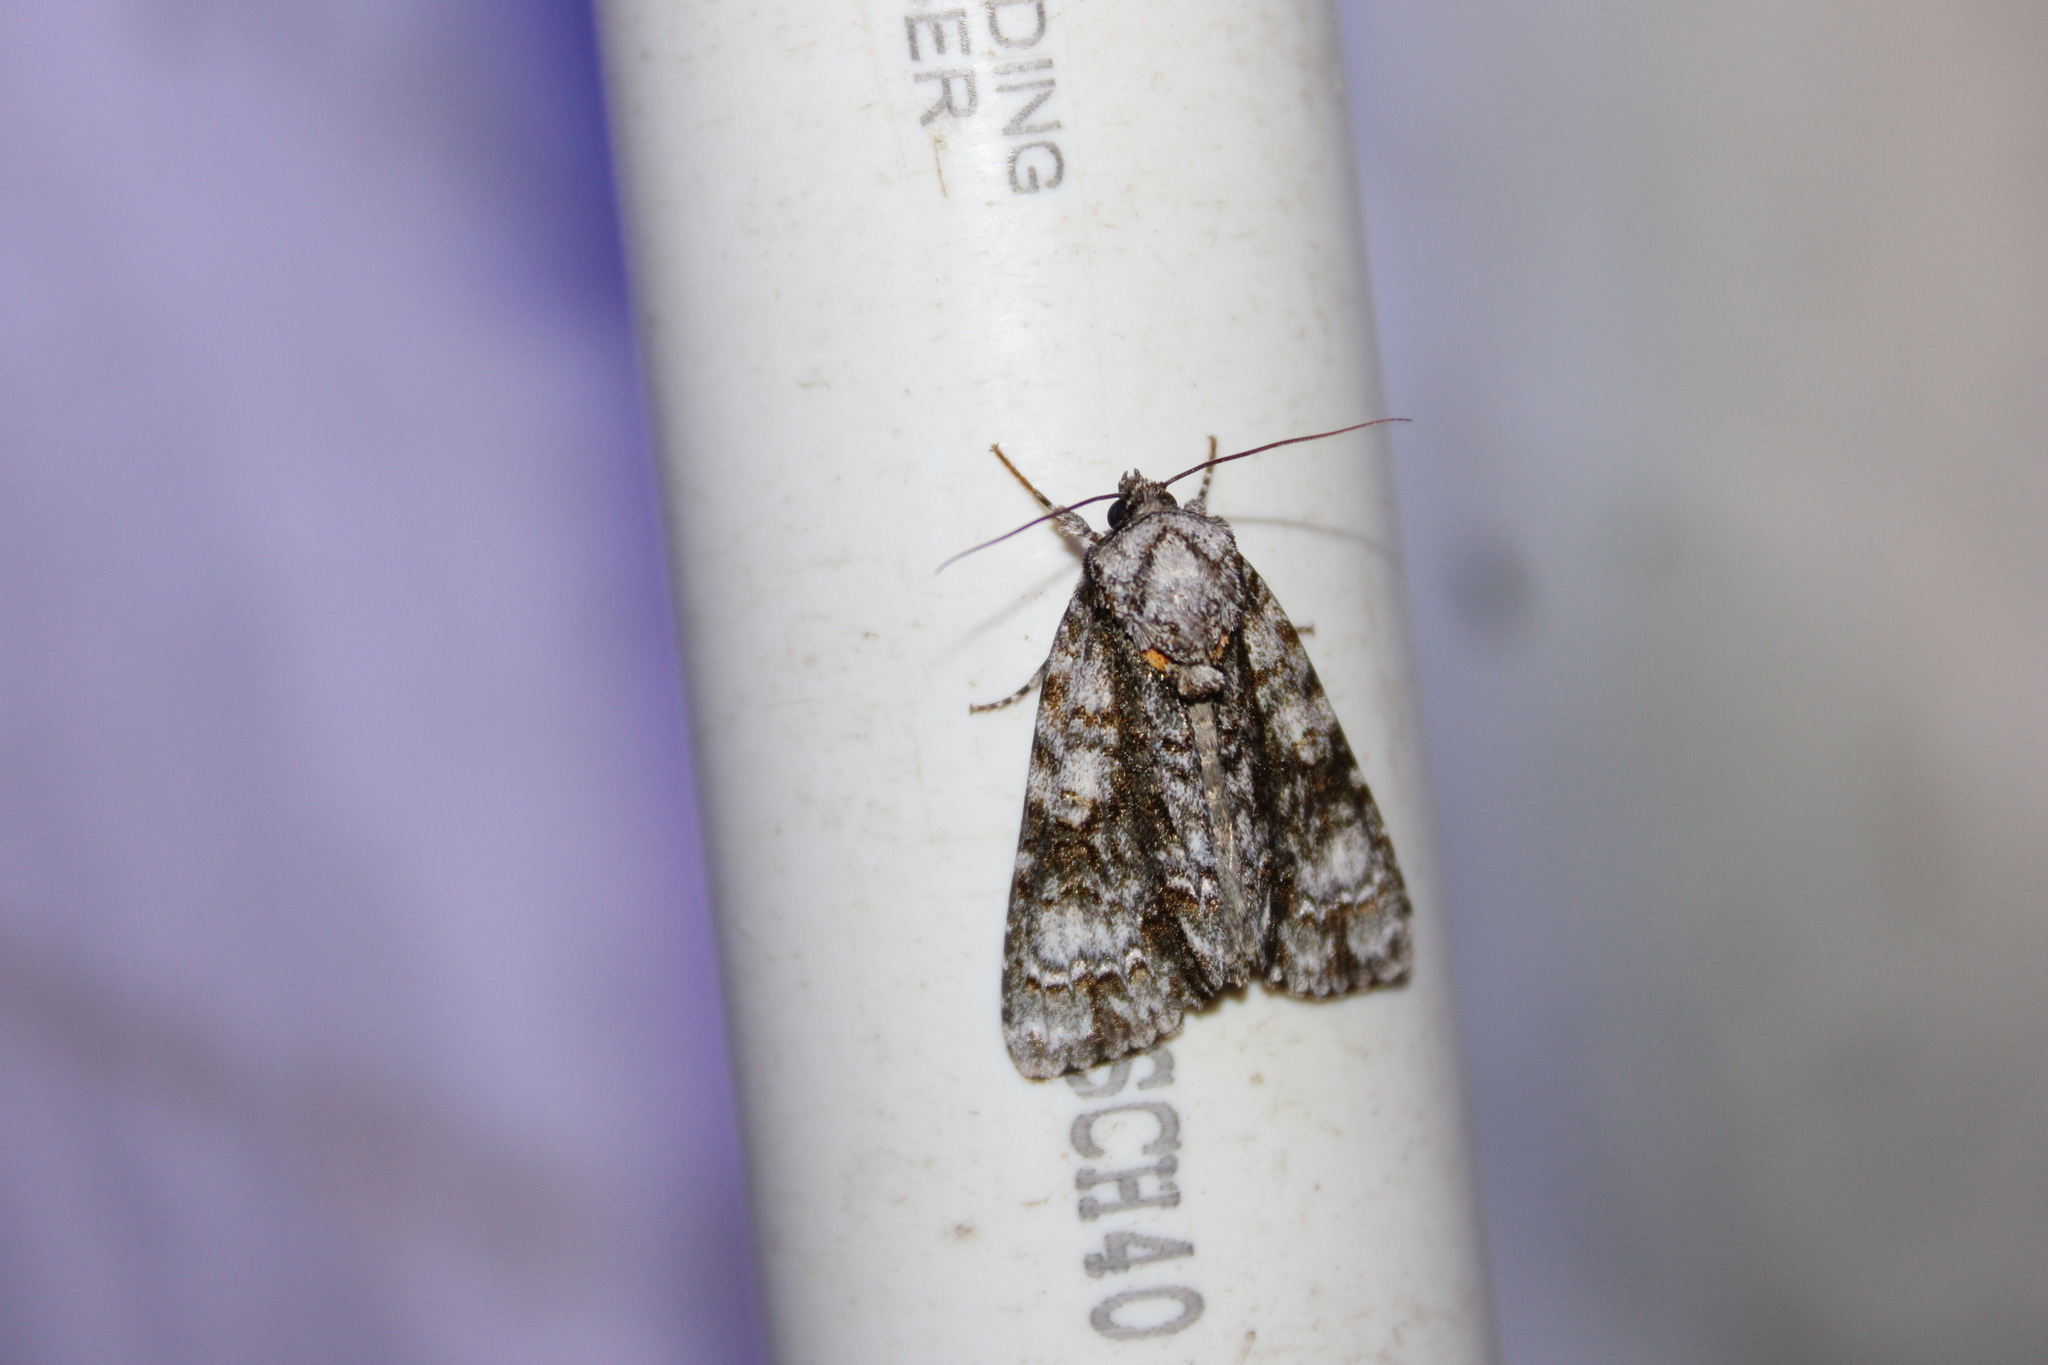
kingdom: Animalia
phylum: Arthropoda
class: Insecta
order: Lepidoptera
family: Noctuidae
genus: Acronicta
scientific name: Acronicta superans
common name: Splendid dagger
